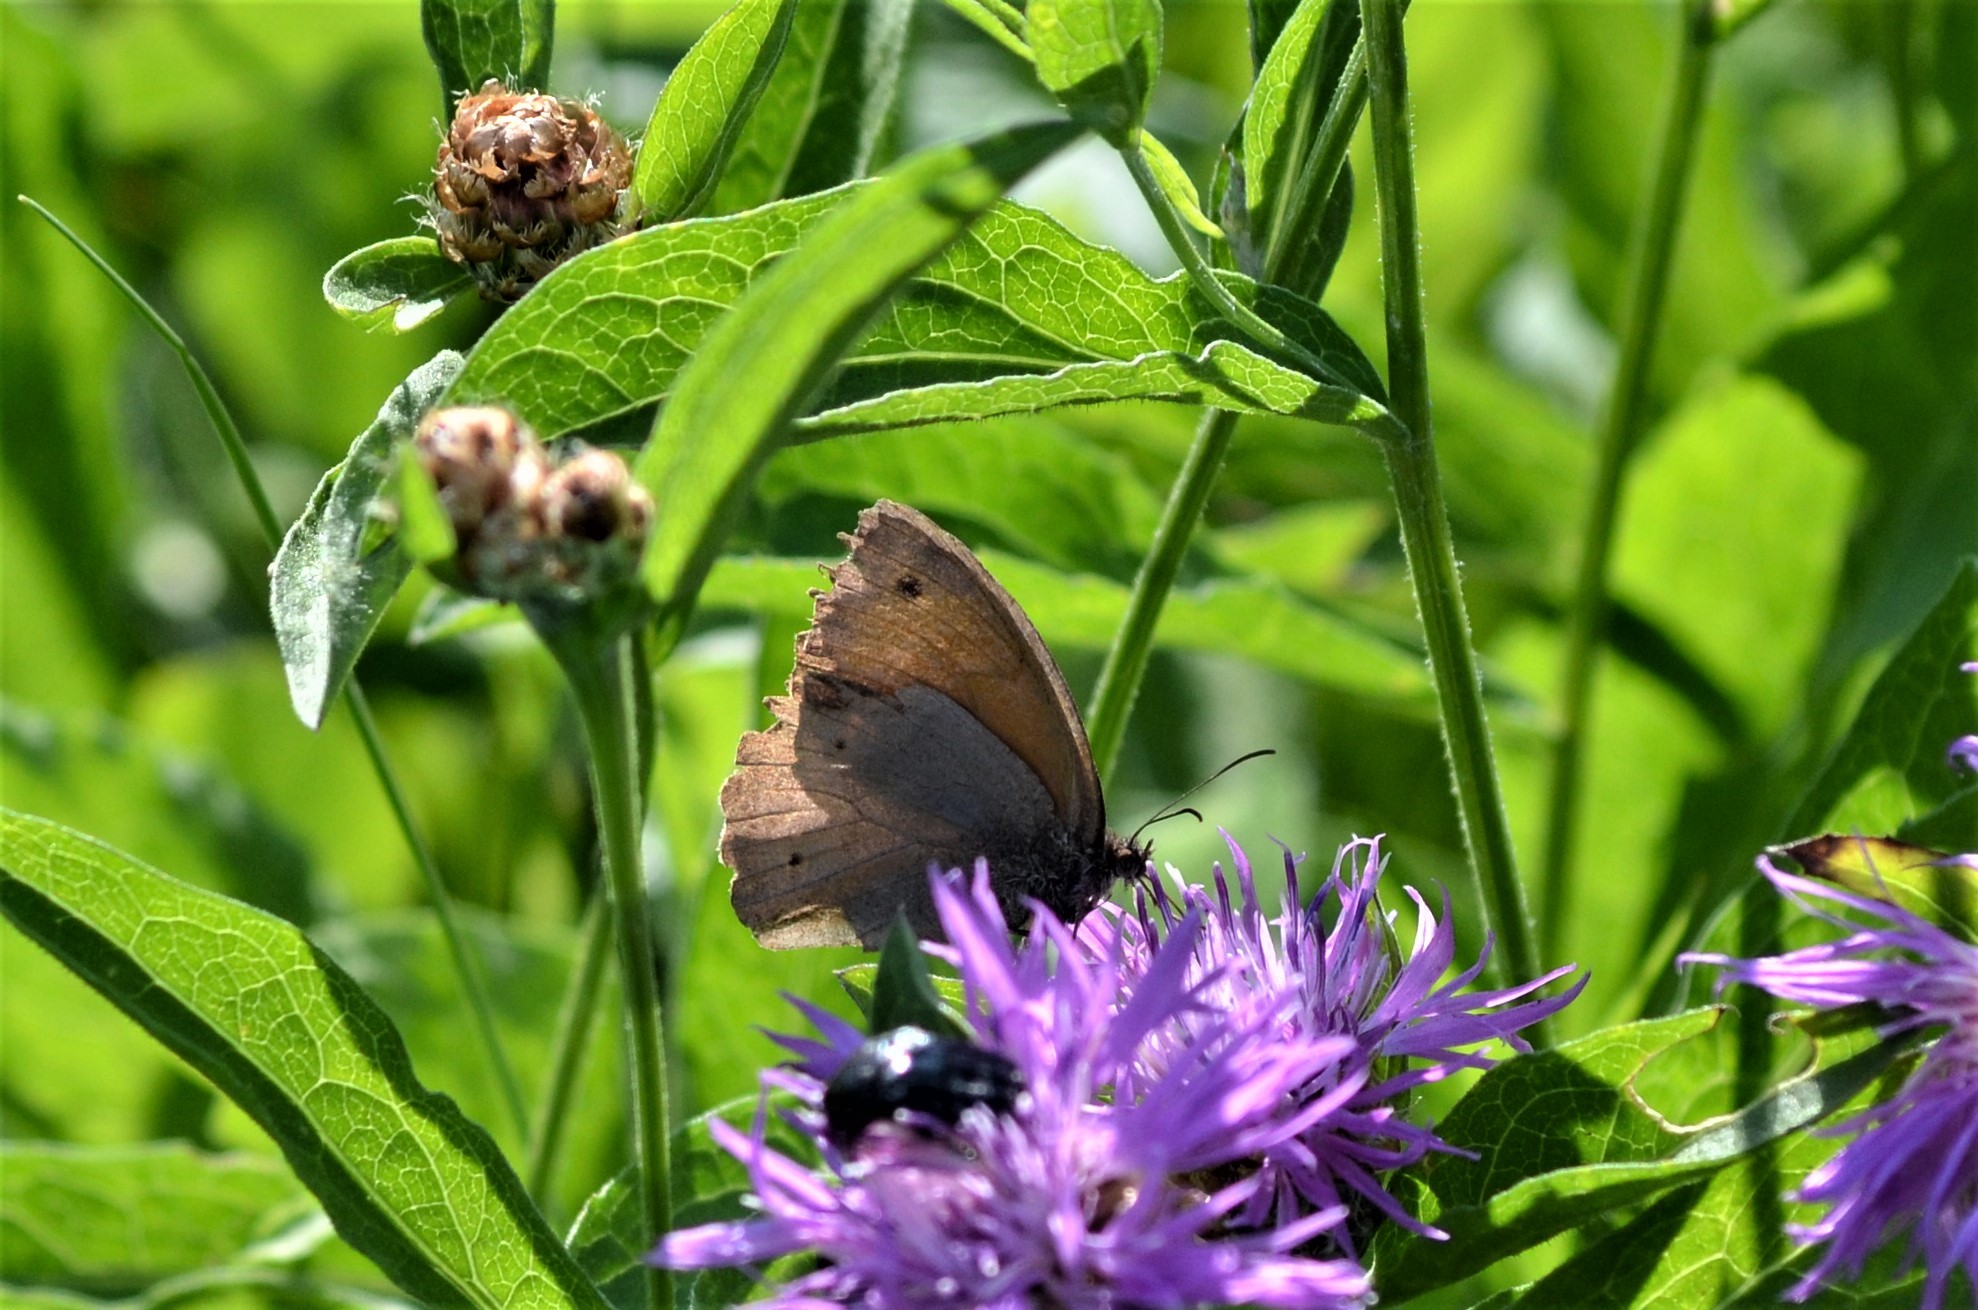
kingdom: Animalia
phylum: Arthropoda
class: Insecta
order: Lepidoptera
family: Nymphalidae
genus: Maniola
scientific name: Maniola jurtina
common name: Meadow brown
